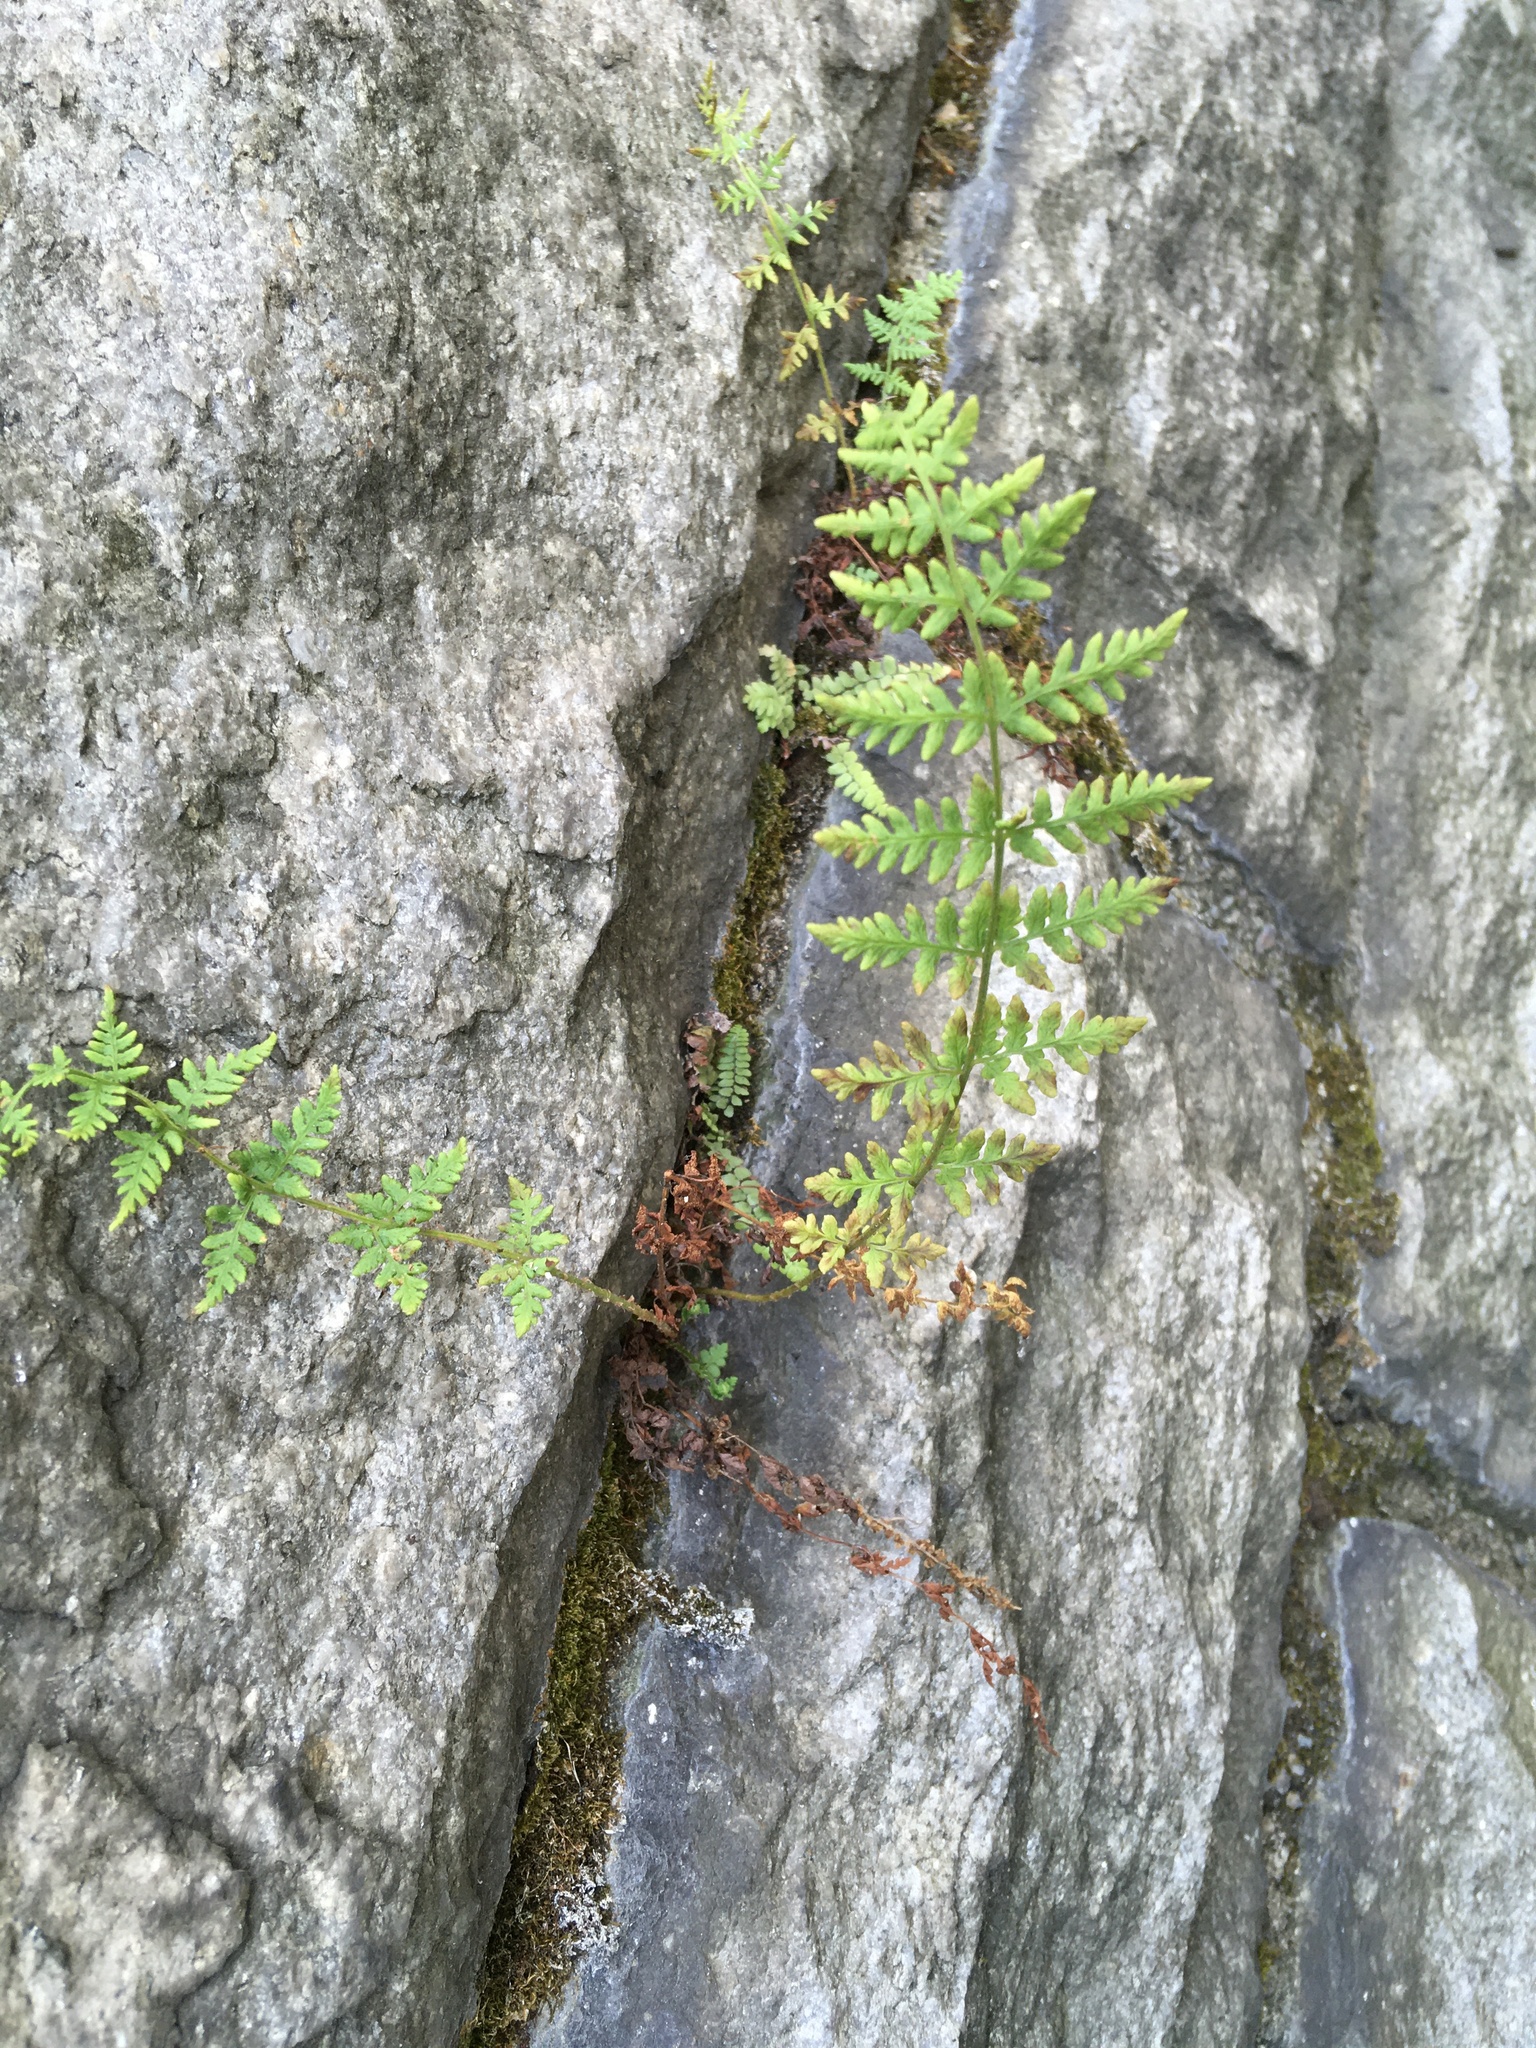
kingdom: Plantae
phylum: Tracheophyta
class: Polypodiopsida
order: Polypodiales
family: Woodsiaceae
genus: Physematium
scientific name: Physematium obtusum
